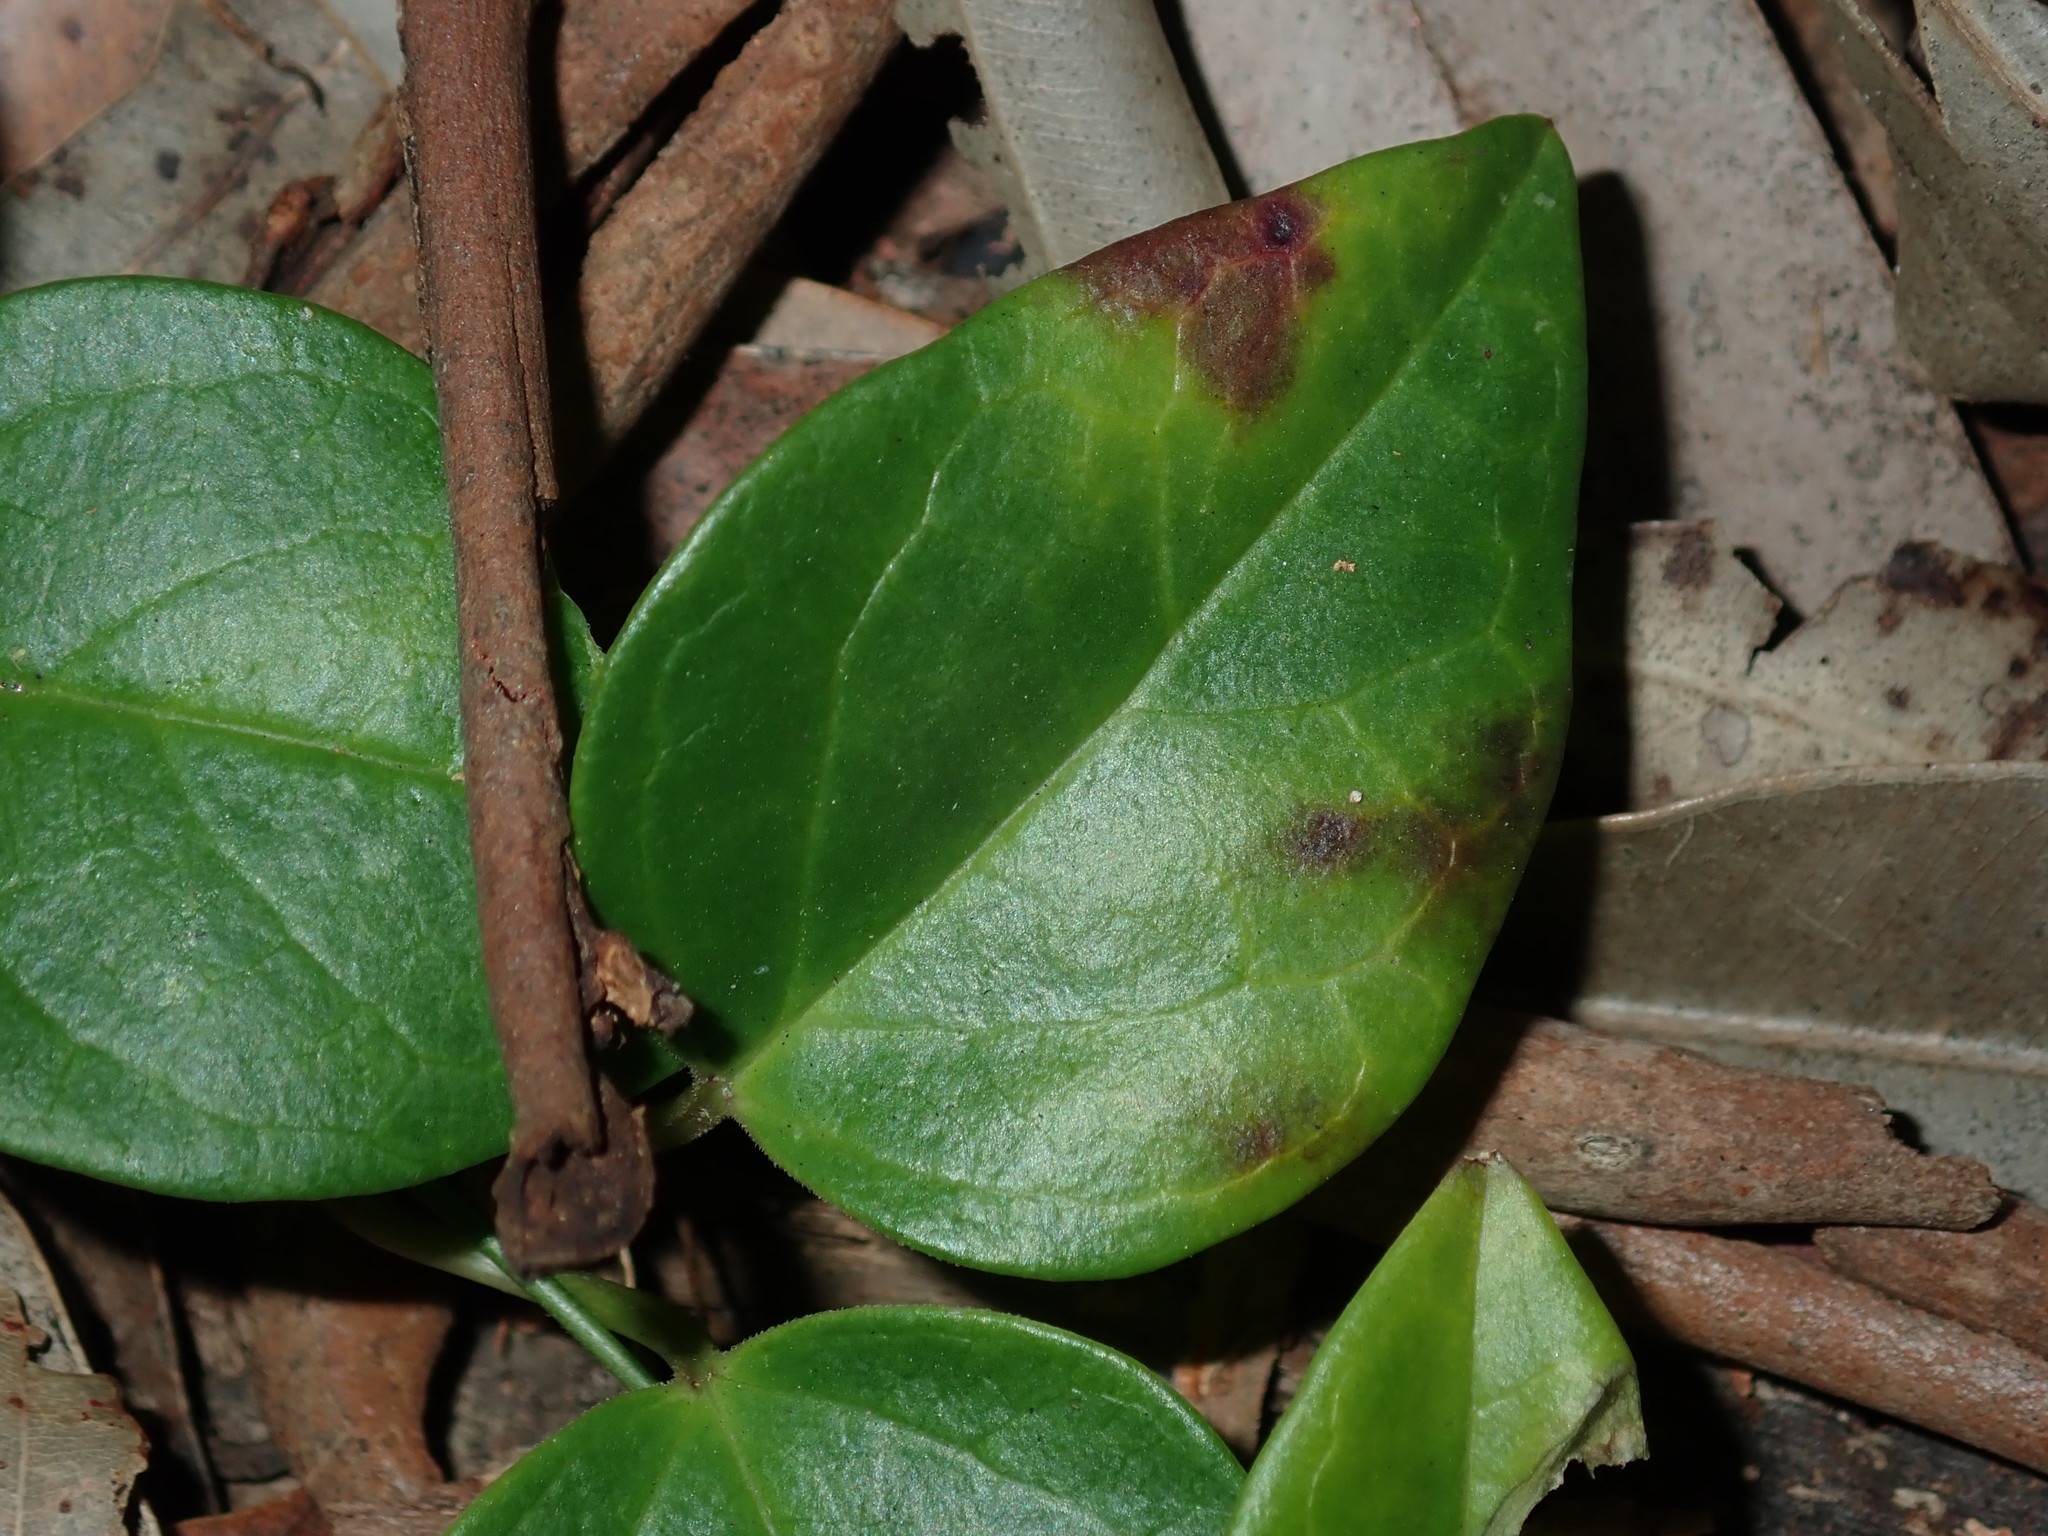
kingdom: Plantae
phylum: Tracheophyta
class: Magnoliopsida
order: Gentianales
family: Apocynaceae
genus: Vincetoxicum
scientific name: Vincetoxicum barbatum
